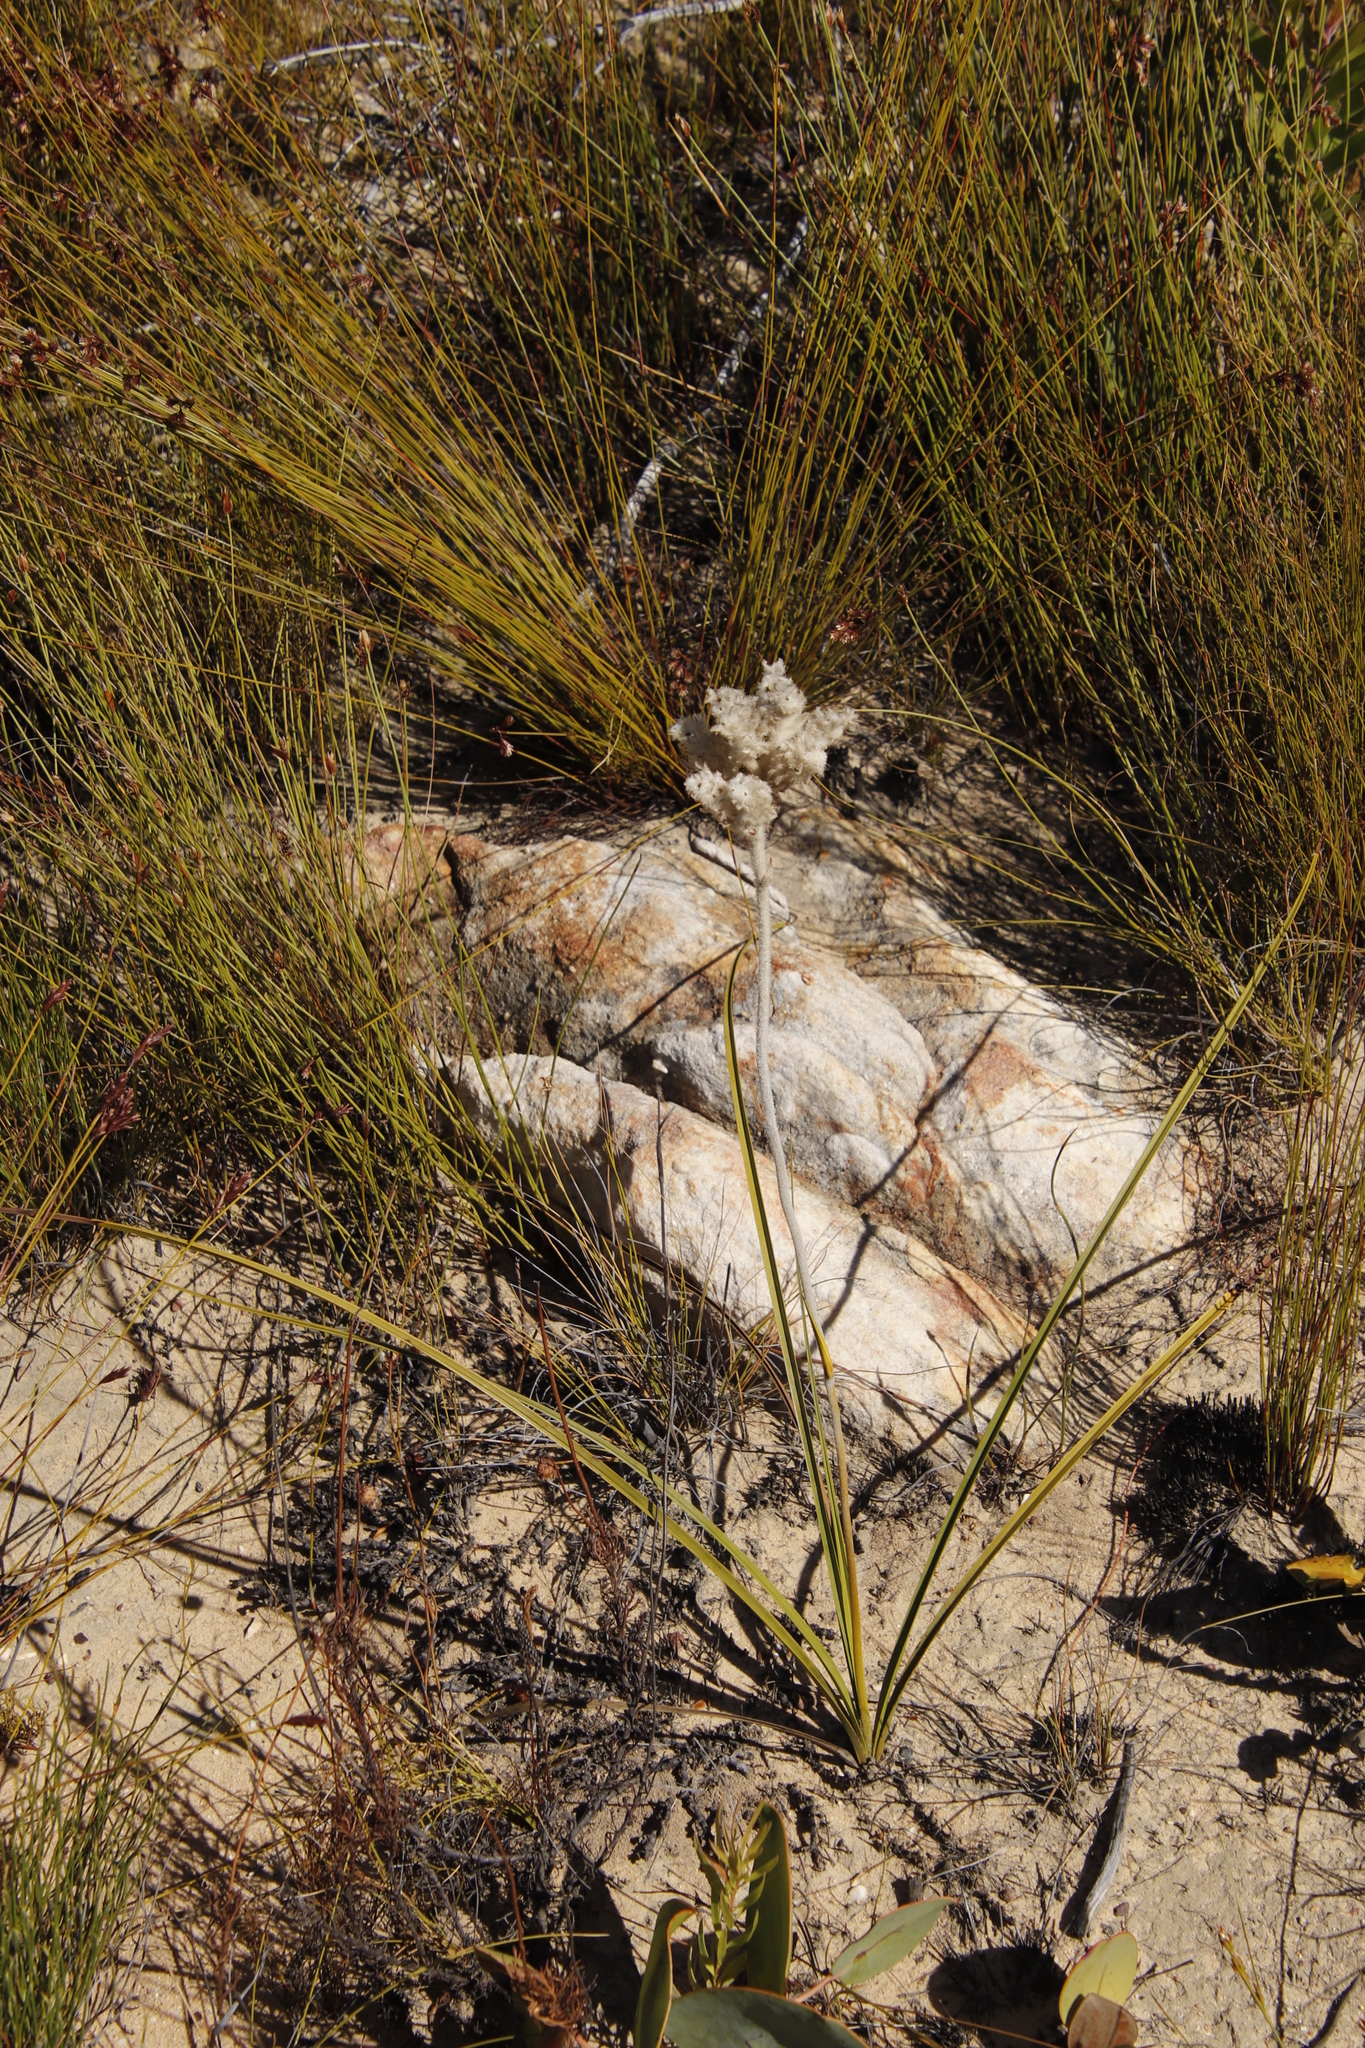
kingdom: Plantae
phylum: Tracheophyta
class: Liliopsida
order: Asparagales
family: Lanariaceae
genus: Lanaria
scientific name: Lanaria lanata
